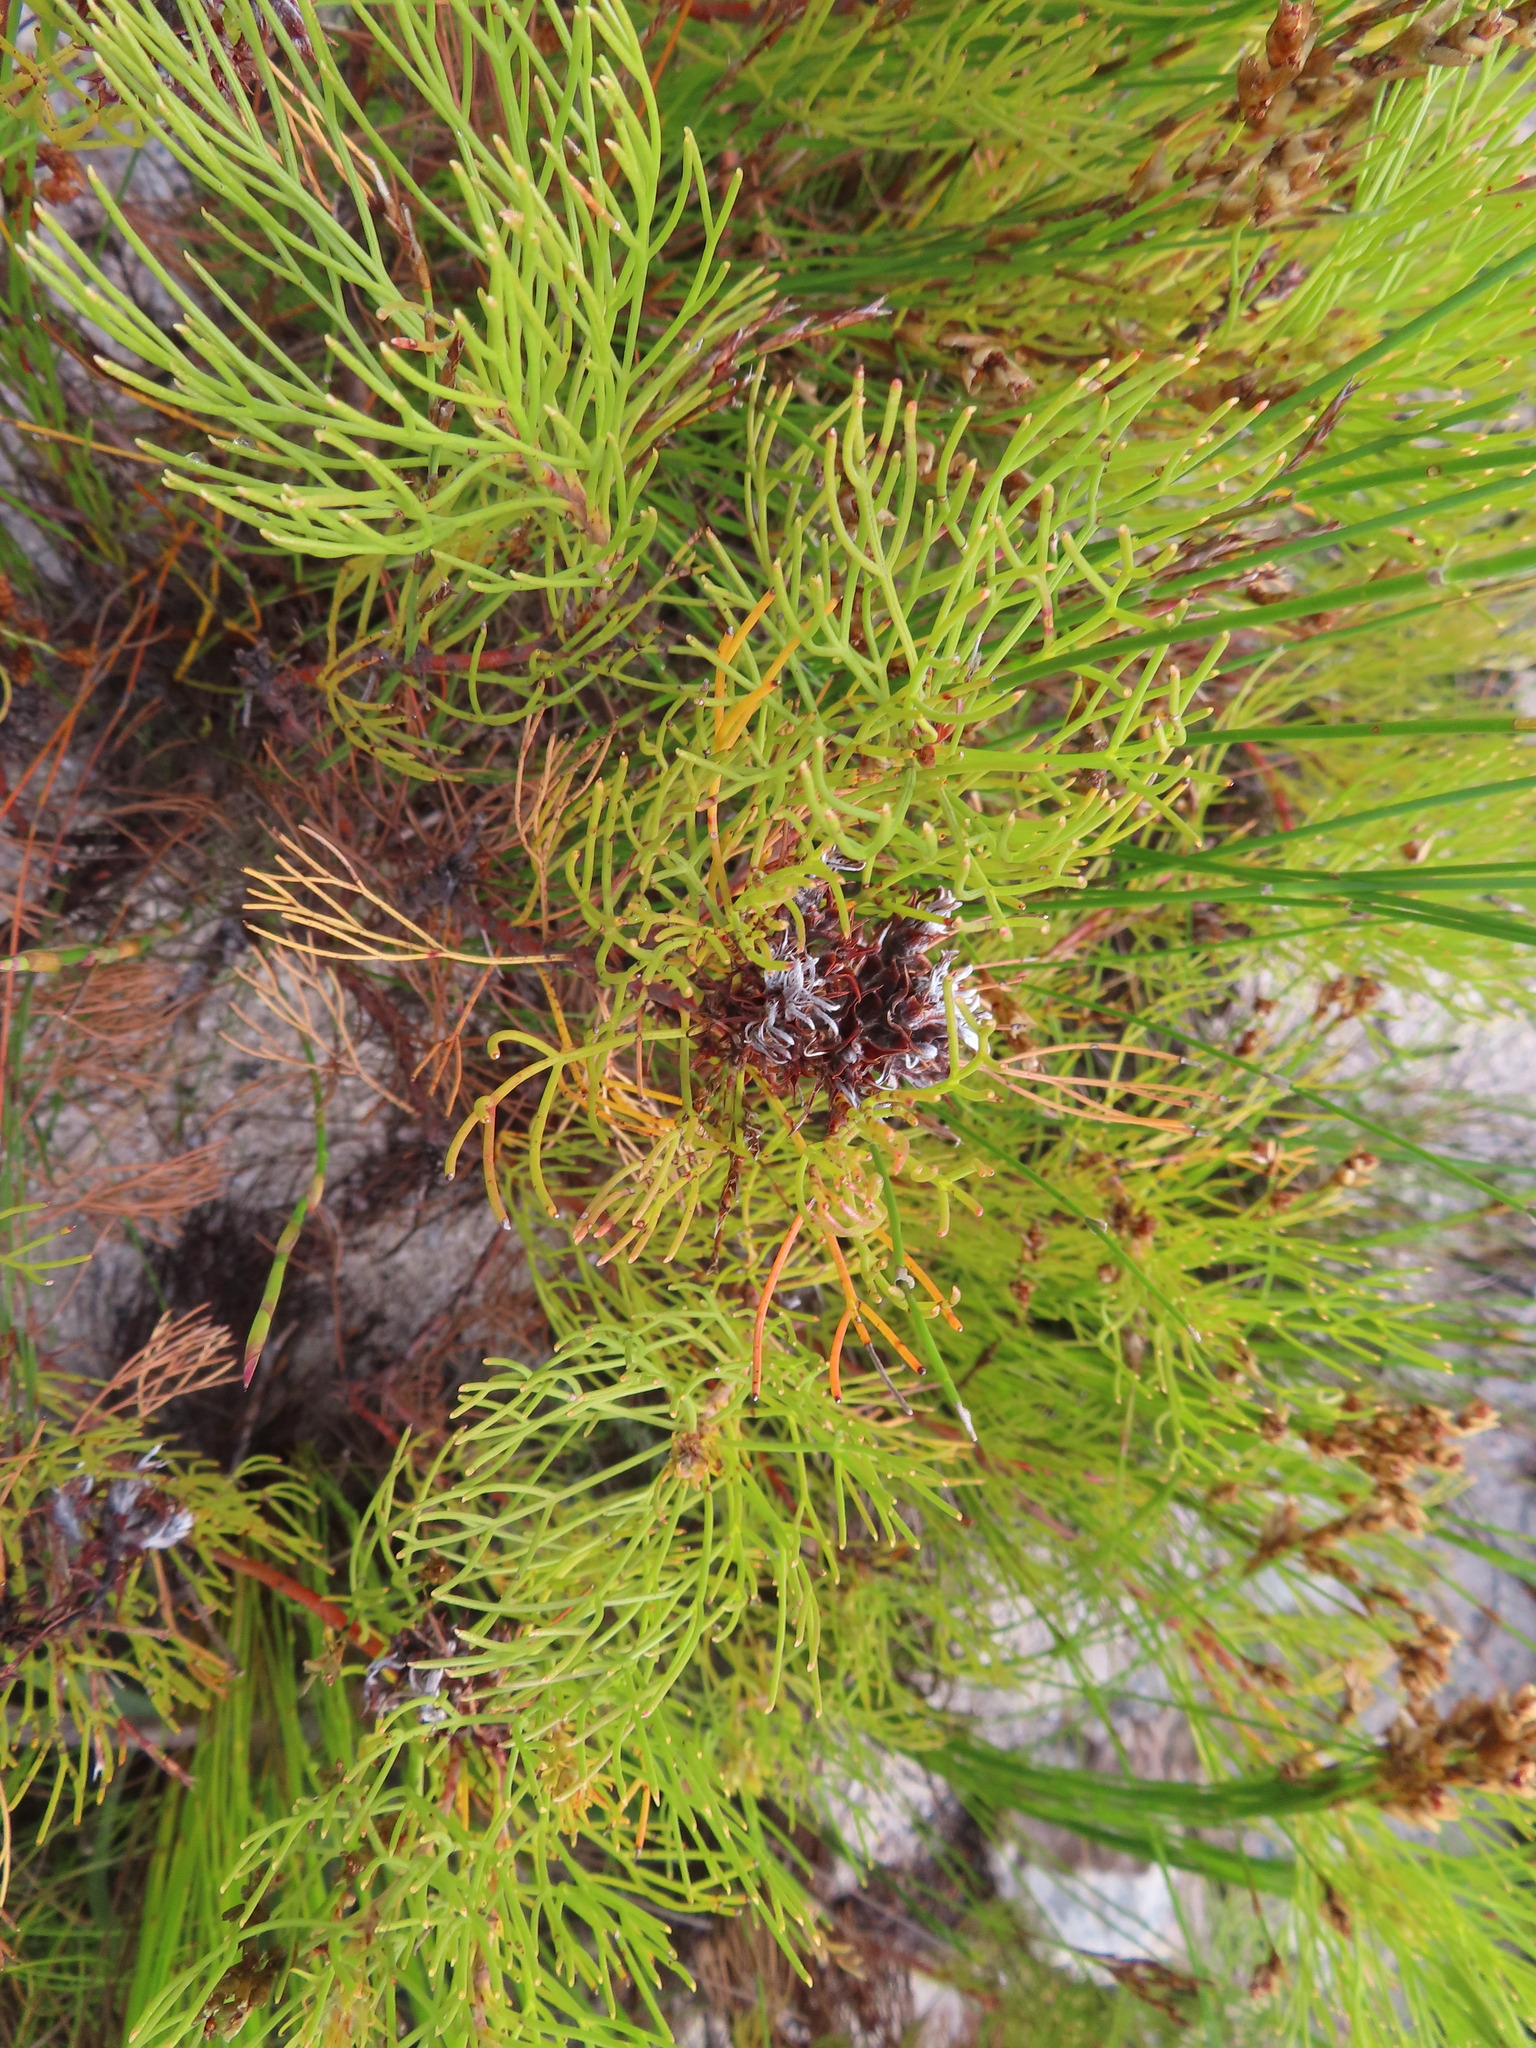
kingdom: Plantae
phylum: Tracheophyta
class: Magnoliopsida
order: Proteales
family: Proteaceae
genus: Serruria
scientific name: Serruria ascendens
